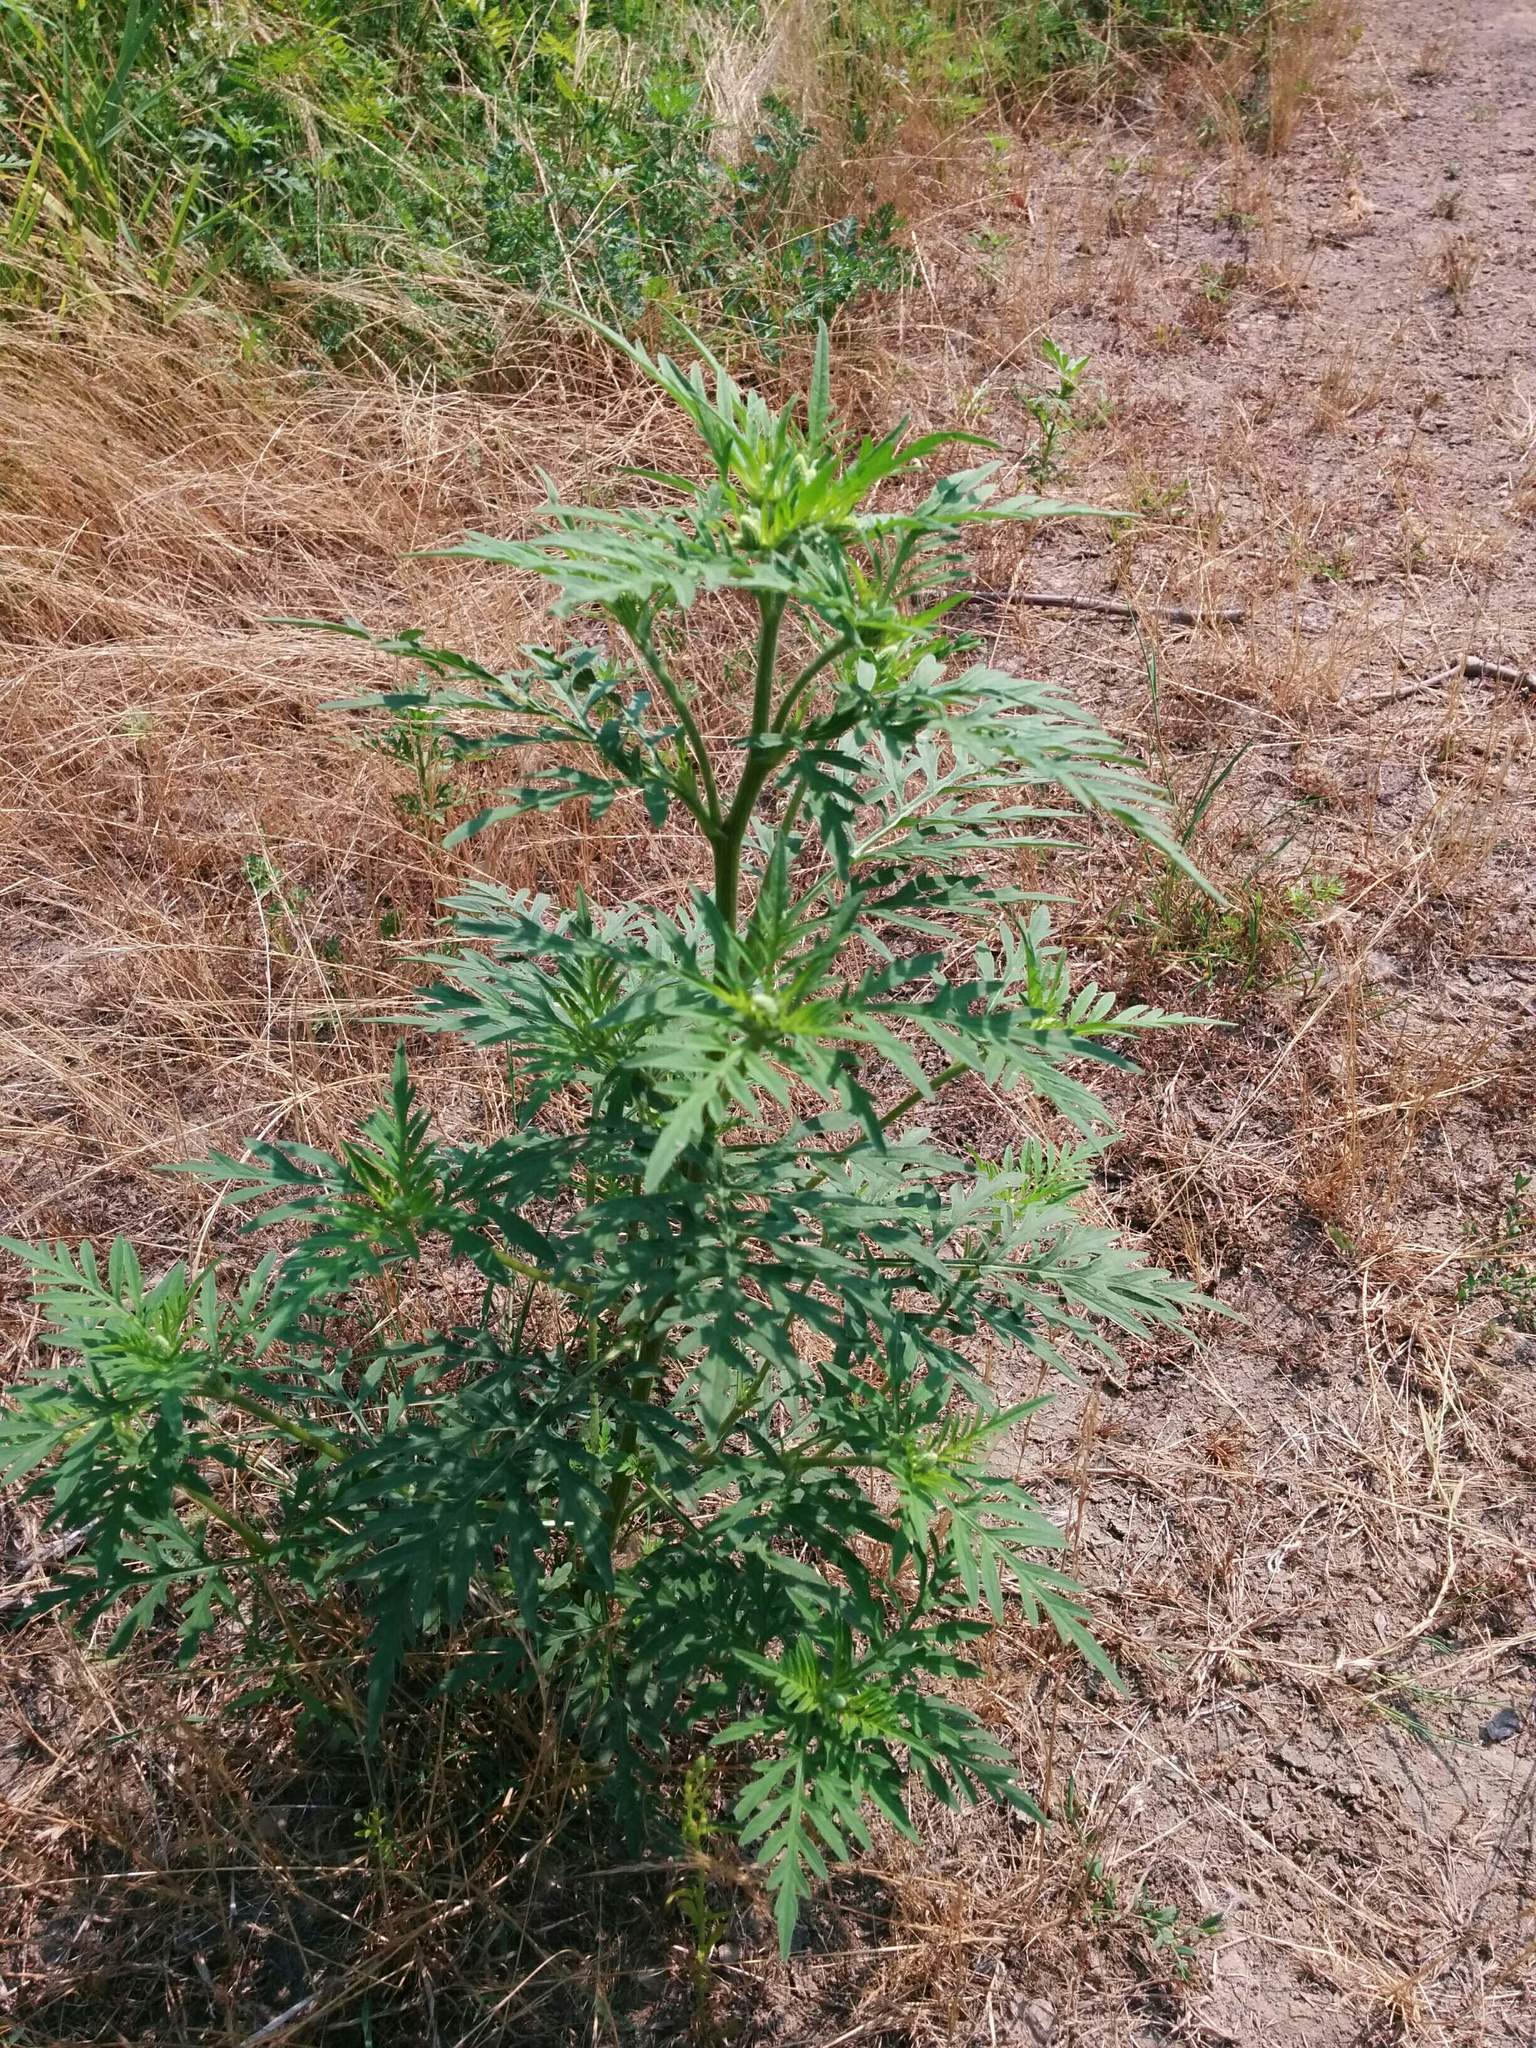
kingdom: Plantae
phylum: Tracheophyta
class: Magnoliopsida
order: Asterales
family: Asteraceae
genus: Ambrosia
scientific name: Ambrosia chamissonis
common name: Beachbur
